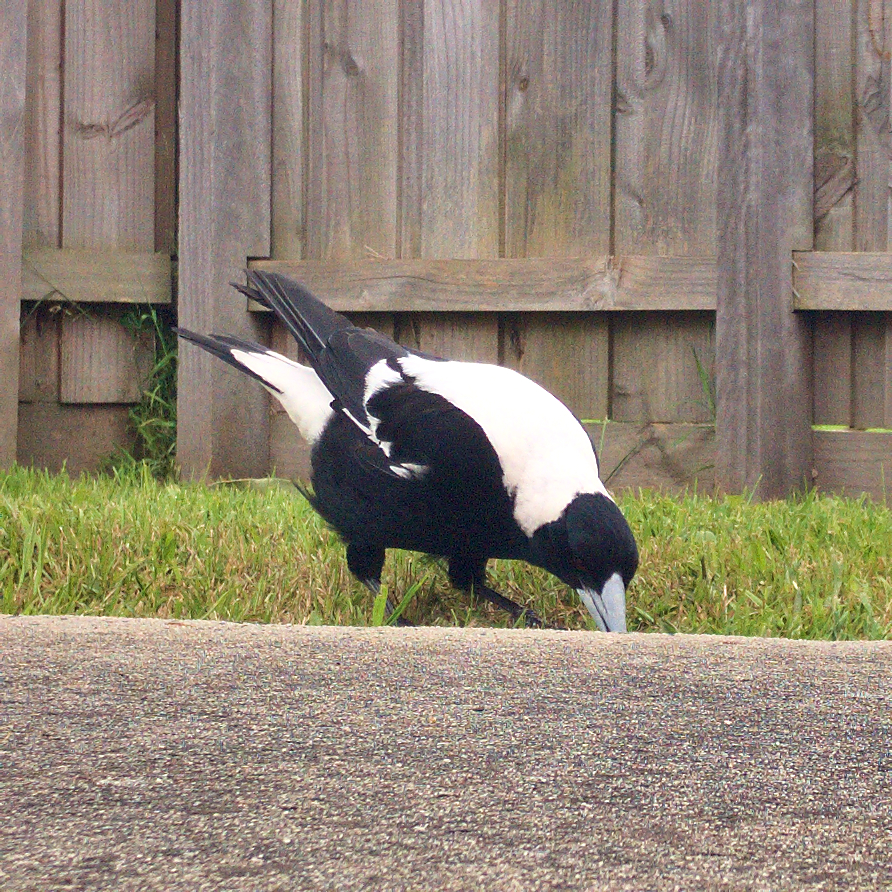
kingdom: Animalia
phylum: Chordata
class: Aves
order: Passeriformes
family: Cracticidae
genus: Gymnorhina
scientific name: Gymnorhina tibicen
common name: Australian magpie
